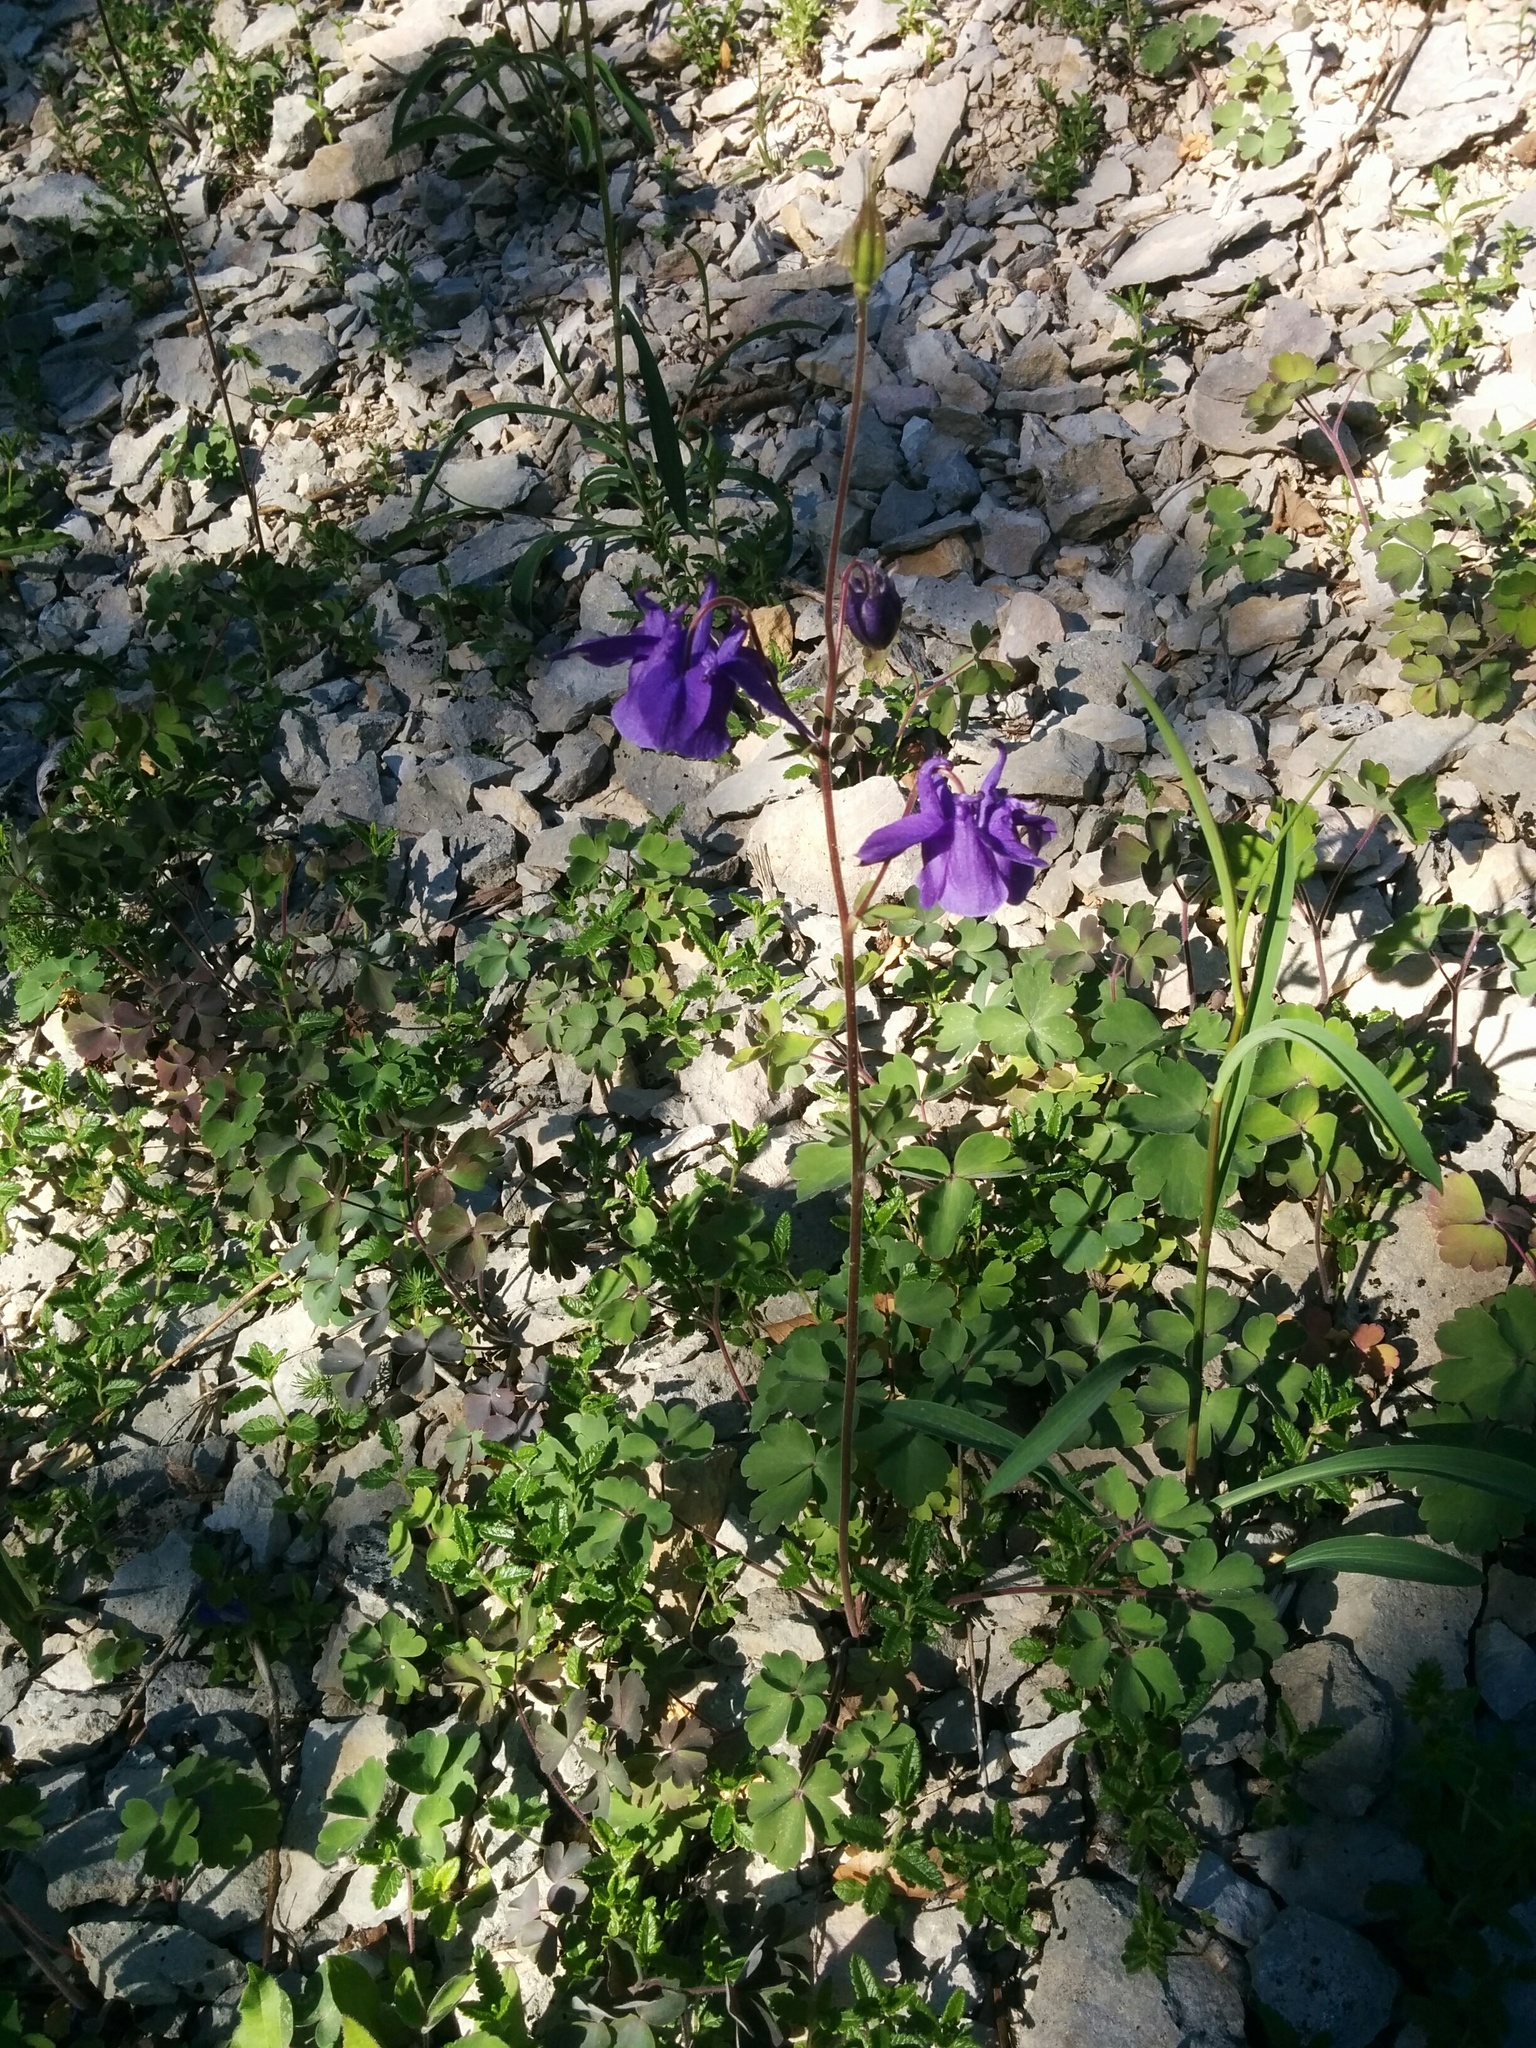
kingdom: Plantae
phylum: Tracheophyta
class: Magnoliopsida
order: Ranunculales
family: Ranunculaceae
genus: Aquilegia
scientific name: Aquilegia vulgaris
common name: Columbine
